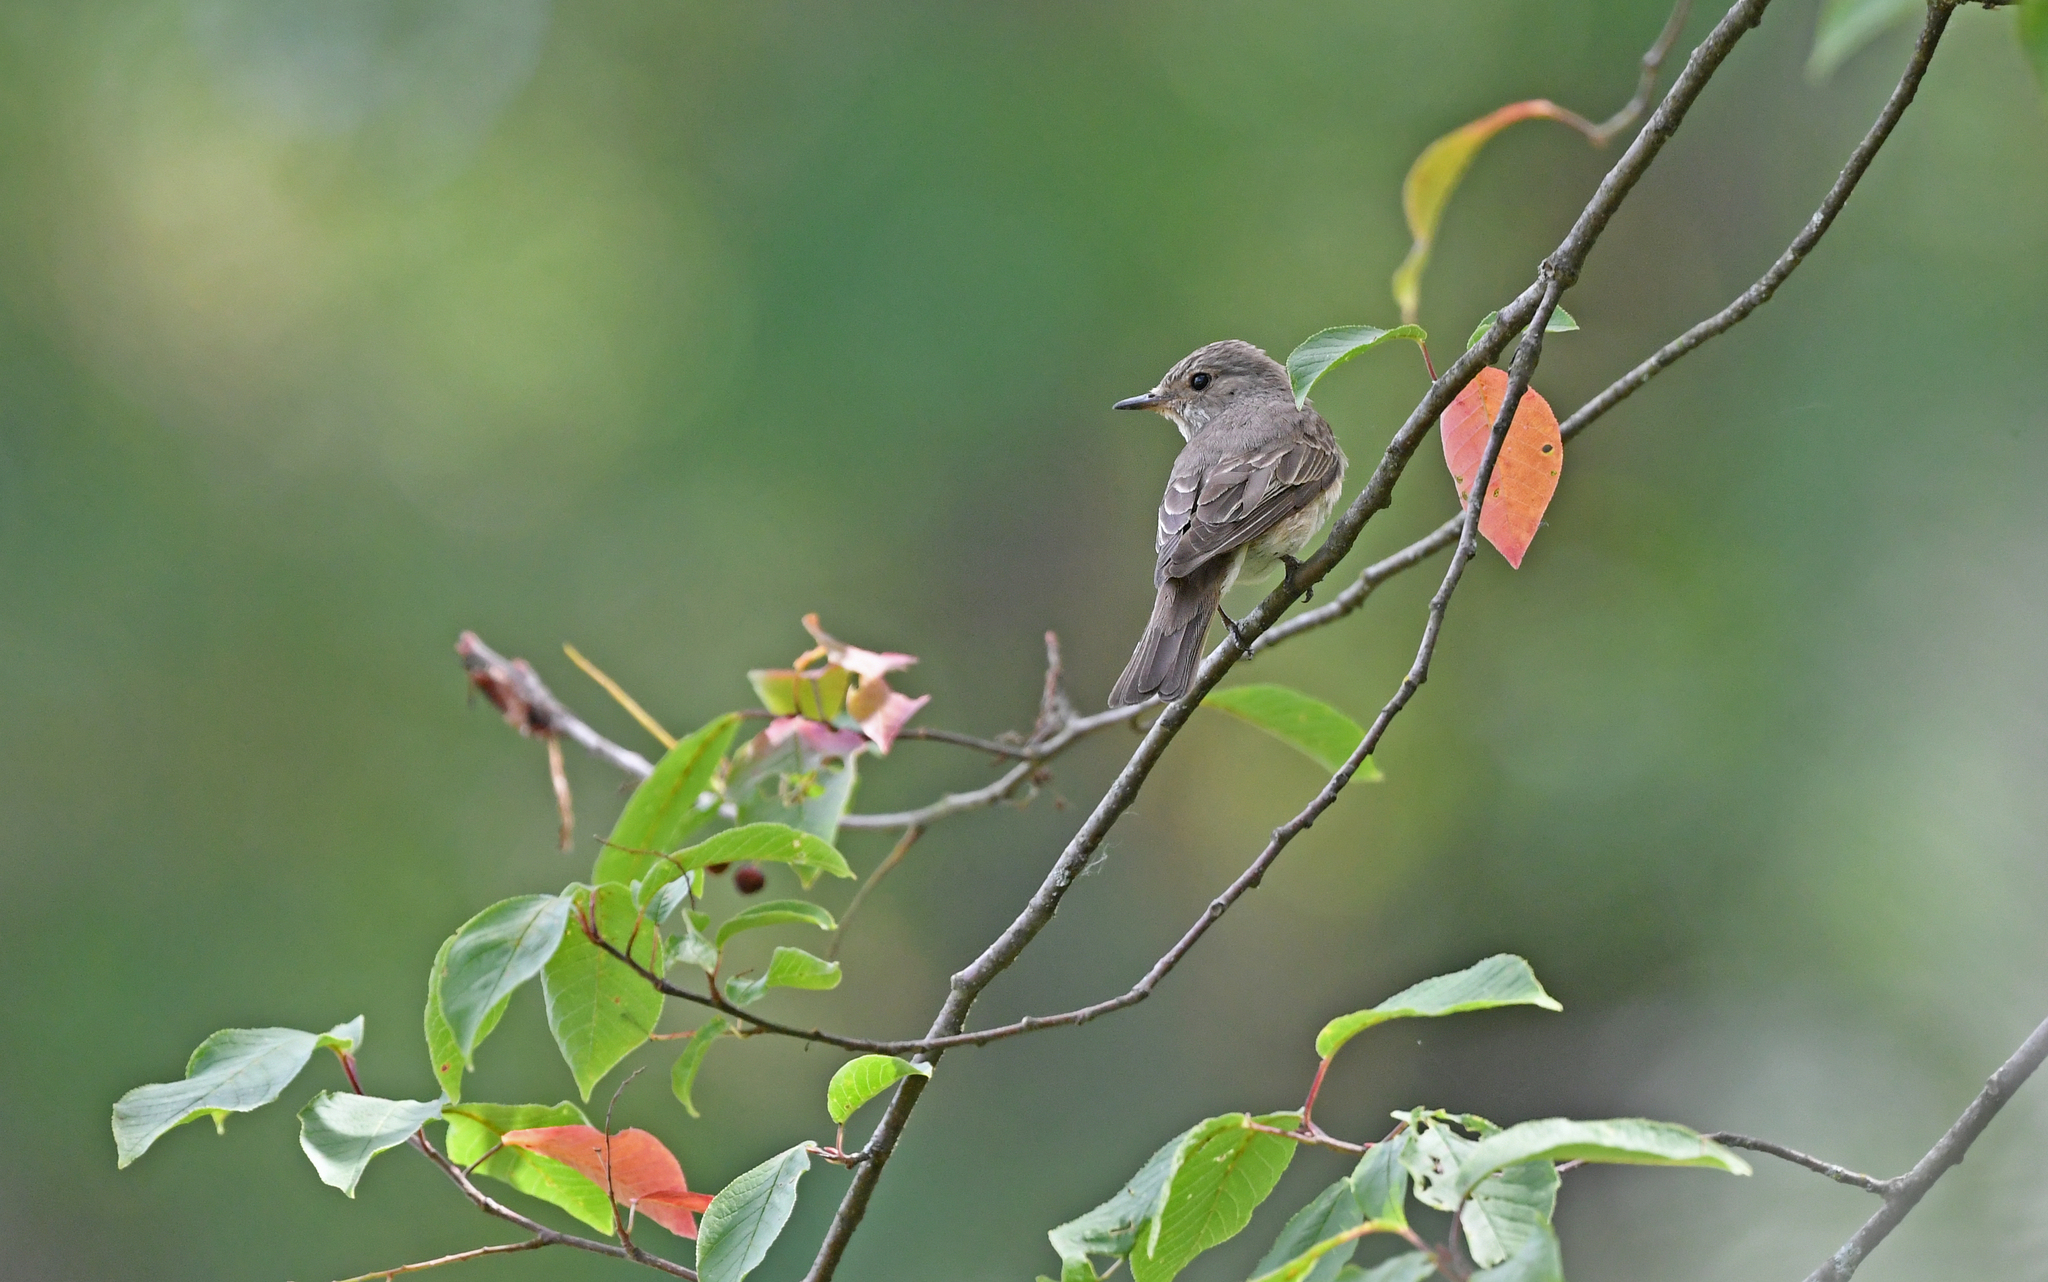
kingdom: Animalia
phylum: Chordata
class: Aves
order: Passeriformes
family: Muscicapidae
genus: Muscicapa
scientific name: Muscicapa striata
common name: Spotted flycatcher
